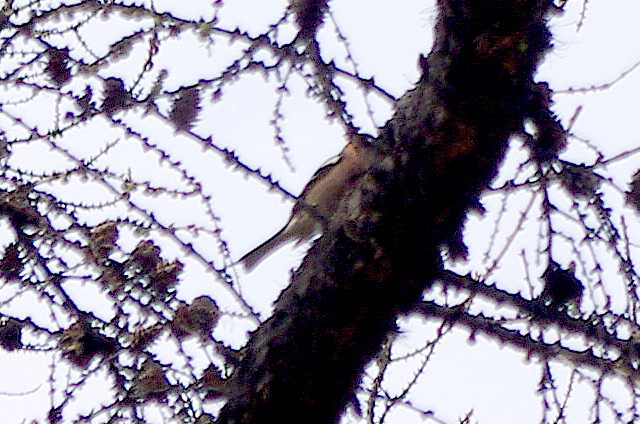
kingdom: Animalia
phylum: Chordata
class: Aves
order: Passeriformes
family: Fringillidae
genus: Fringilla
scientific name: Fringilla coelebs
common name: Common chaffinch
